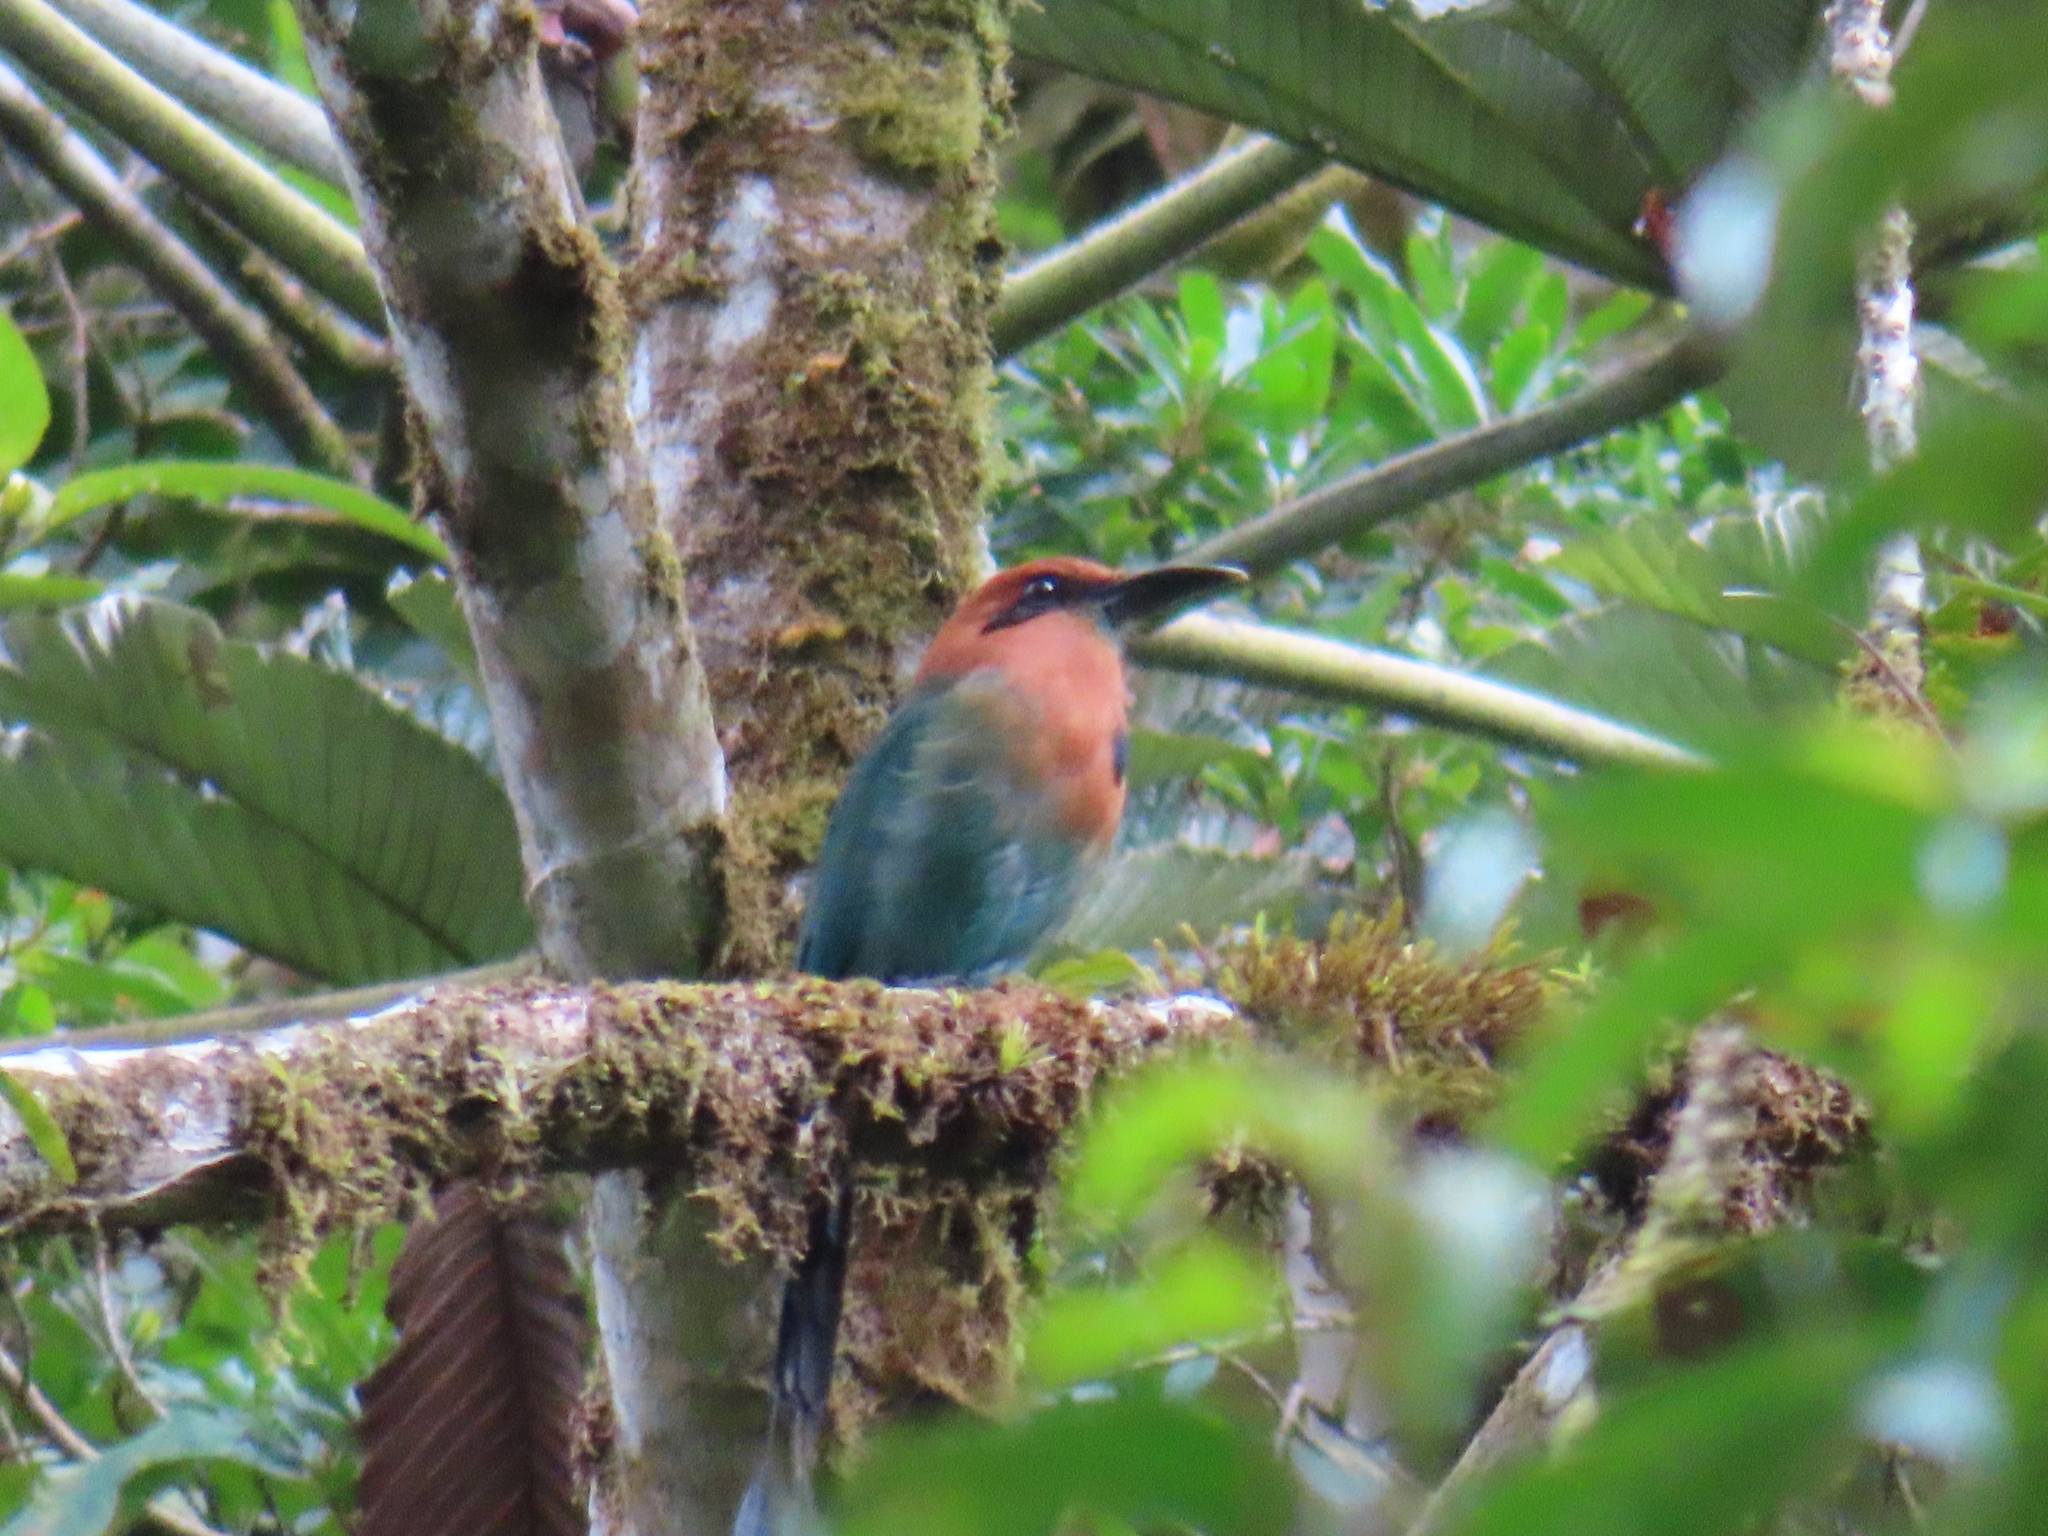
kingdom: Animalia
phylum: Chordata
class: Aves
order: Coraciiformes
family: Momotidae
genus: Electron
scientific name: Electron platyrhynchum
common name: Broad-billed motmot
